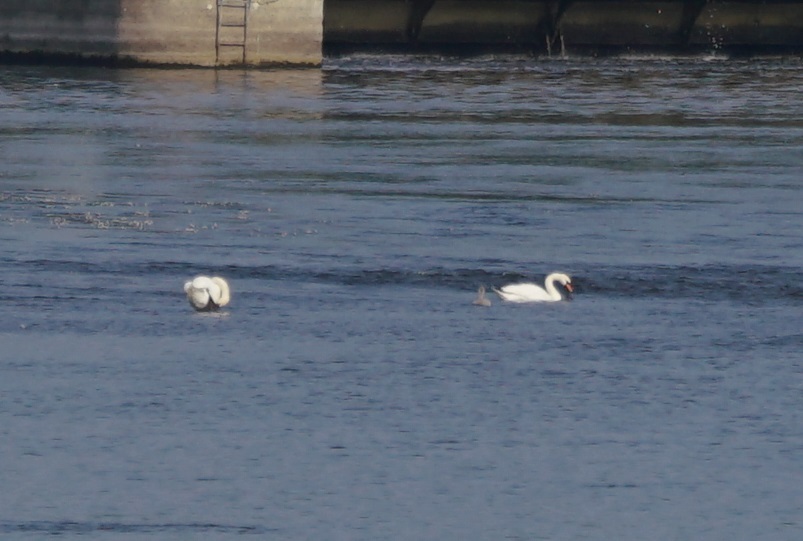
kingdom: Animalia
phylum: Chordata
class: Aves
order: Anseriformes
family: Anatidae
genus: Cygnus
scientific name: Cygnus olor
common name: Mute swan
